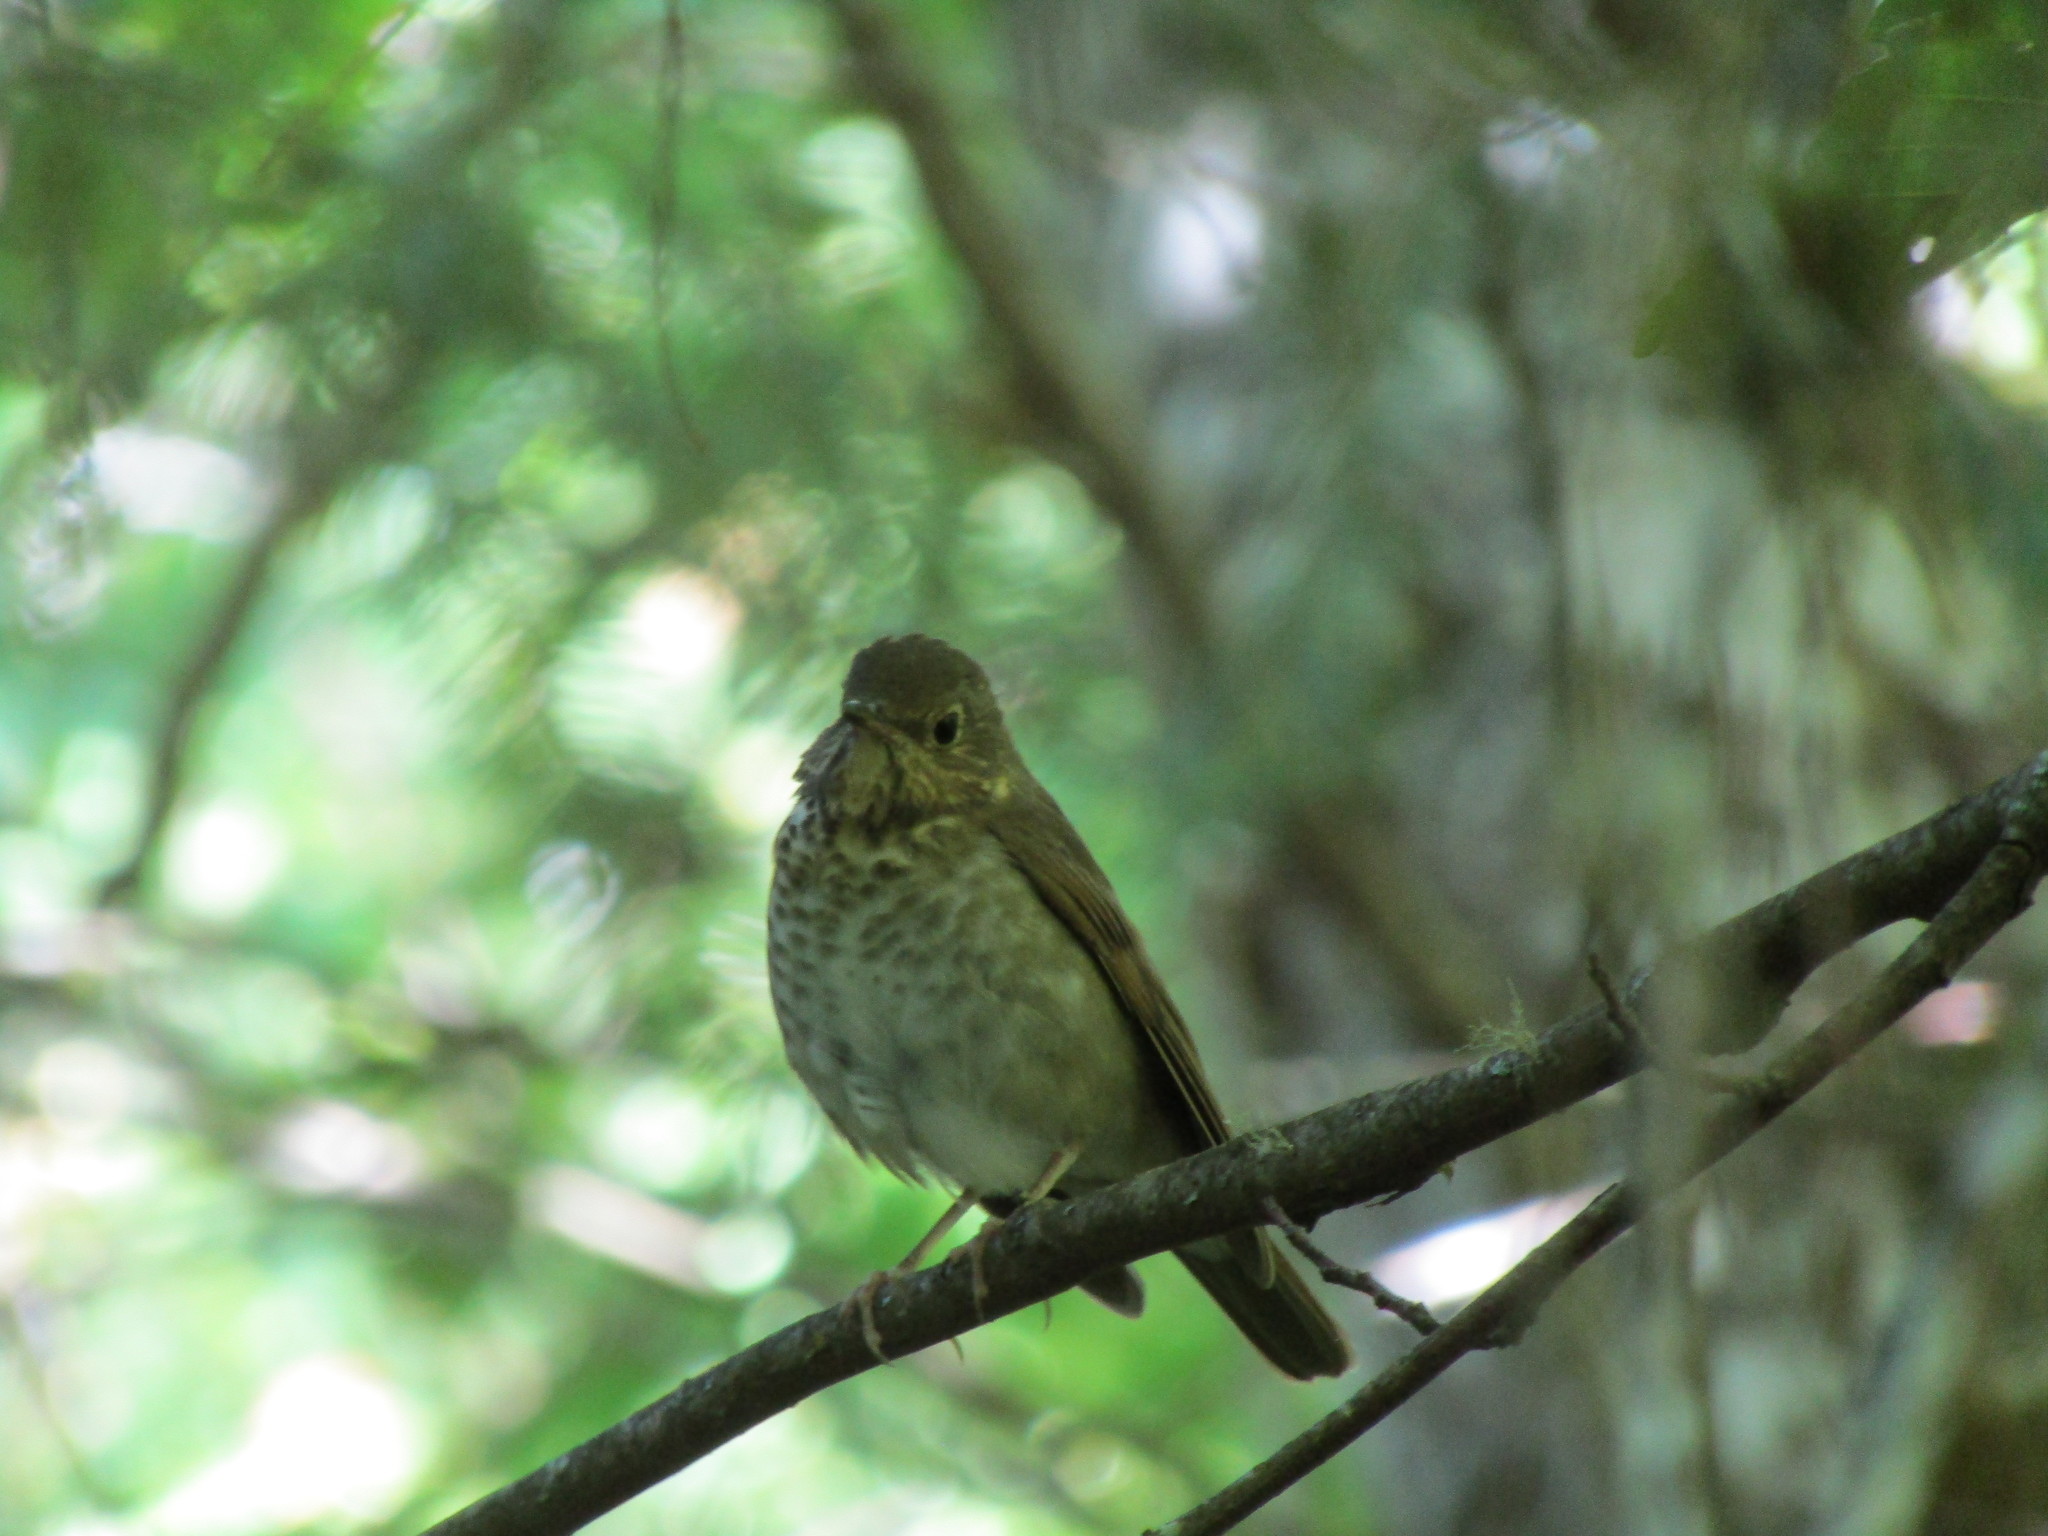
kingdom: Animalia
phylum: Chordata
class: Aves
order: Passeriformes
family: Turdidae
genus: Catharus
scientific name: Catharus ustulatus
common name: Swainson's thrush
